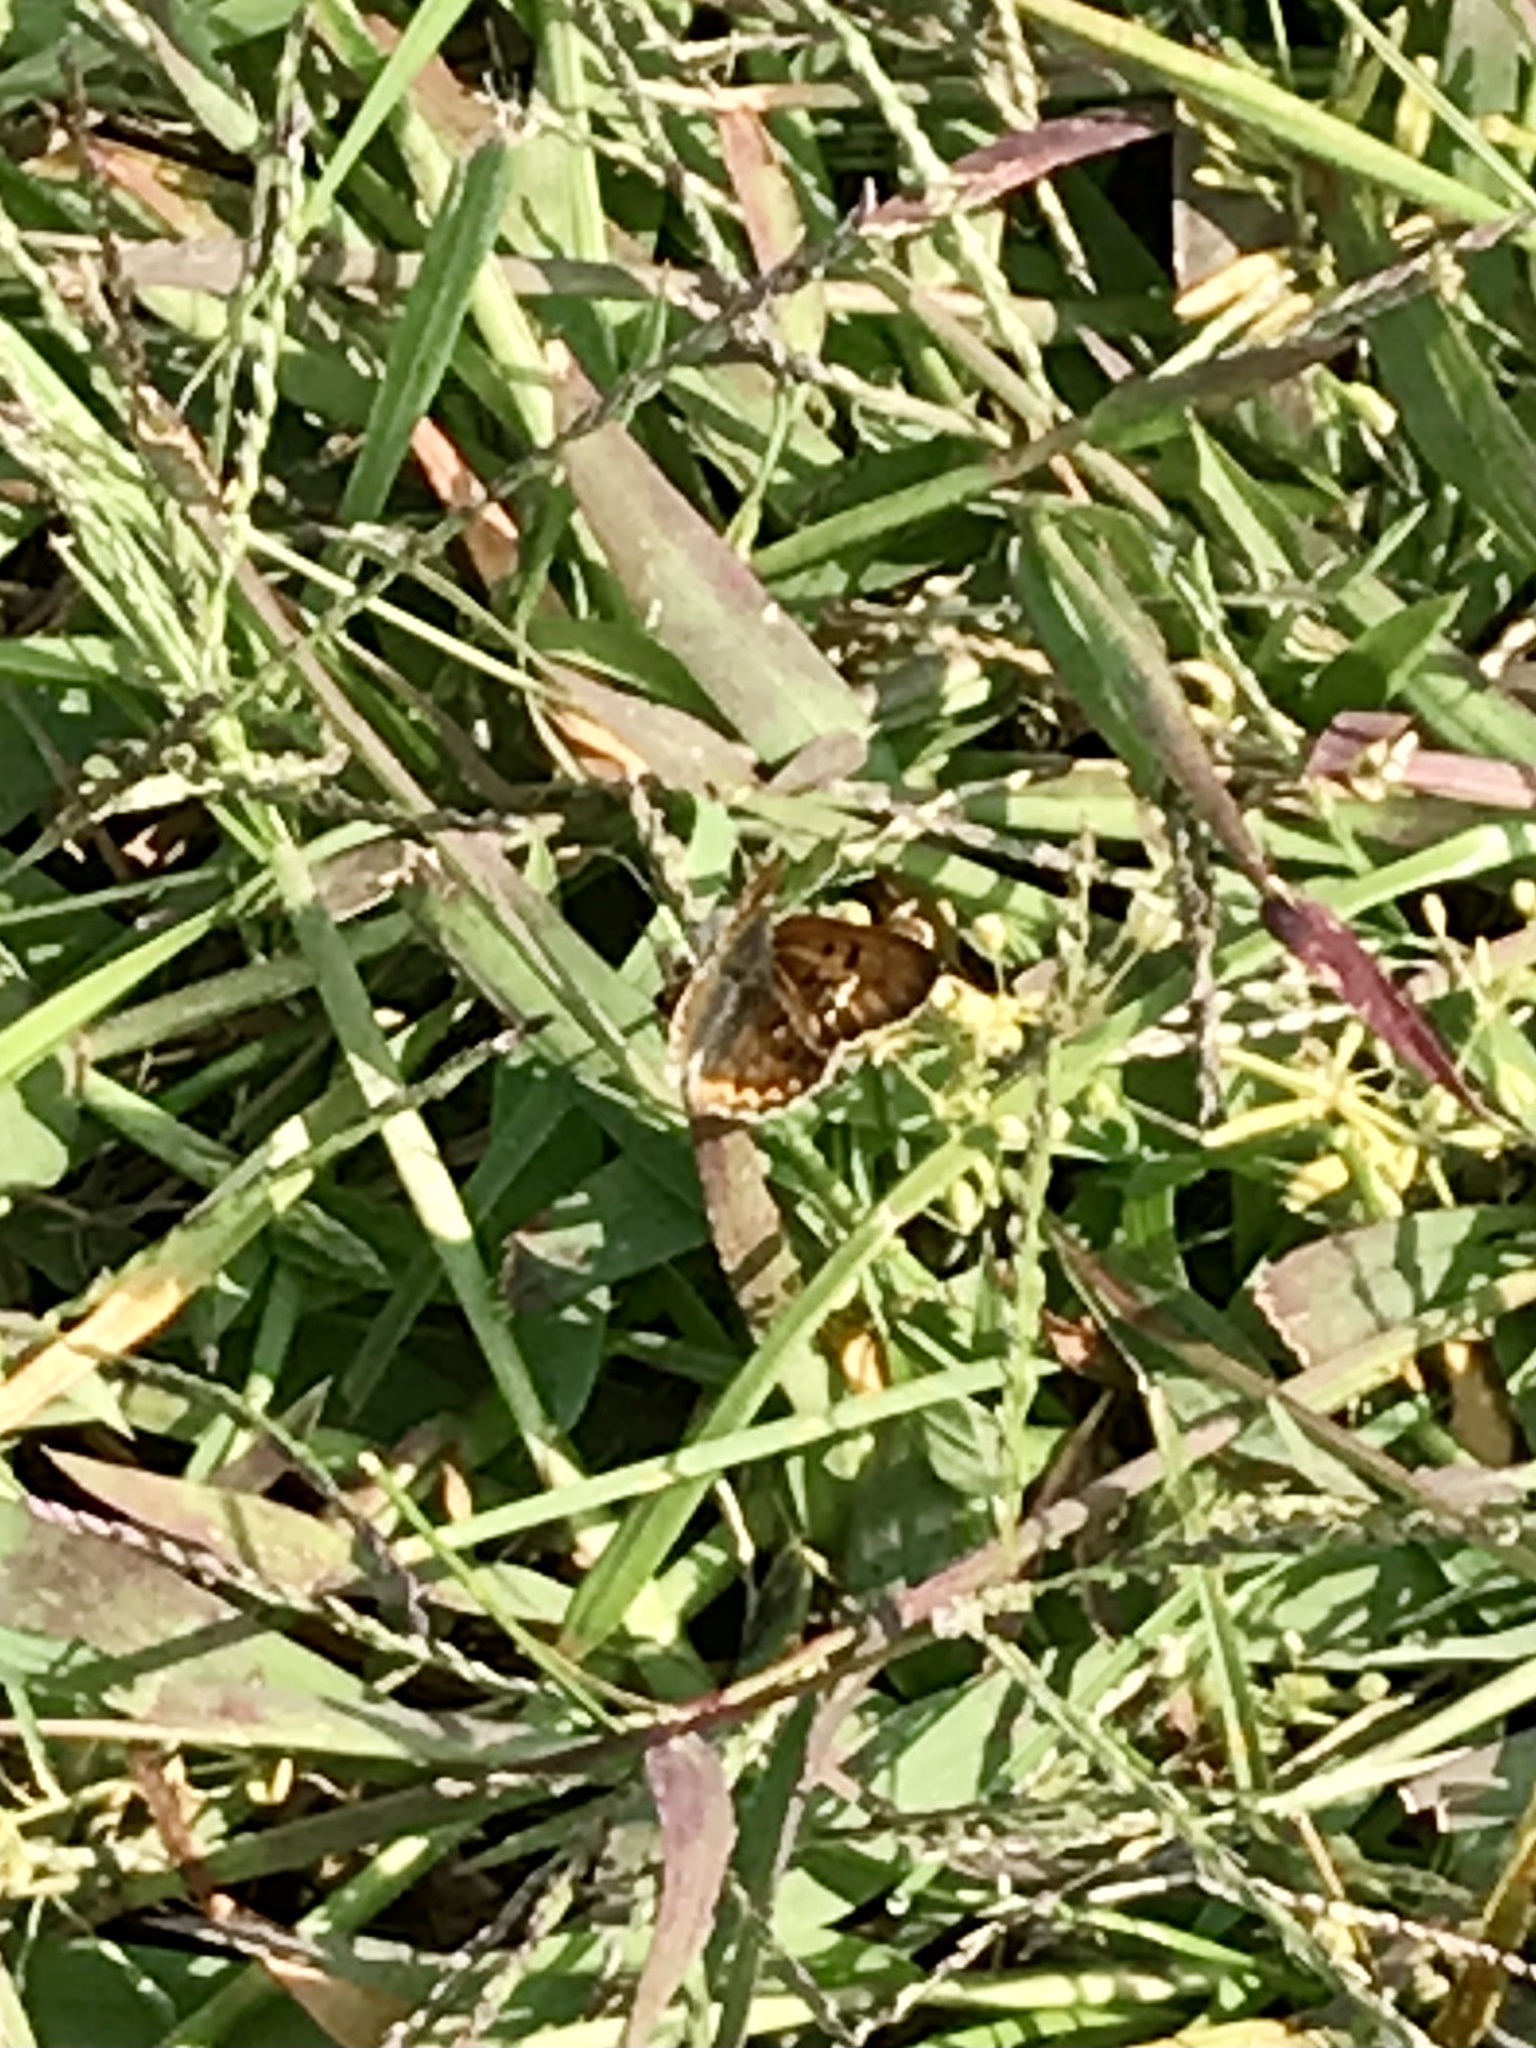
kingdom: Animalia
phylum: Arthropoda
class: Insecta
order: Lepidoptera
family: Lycaenidae
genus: Tharsalea
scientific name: Tharsalea helloides
